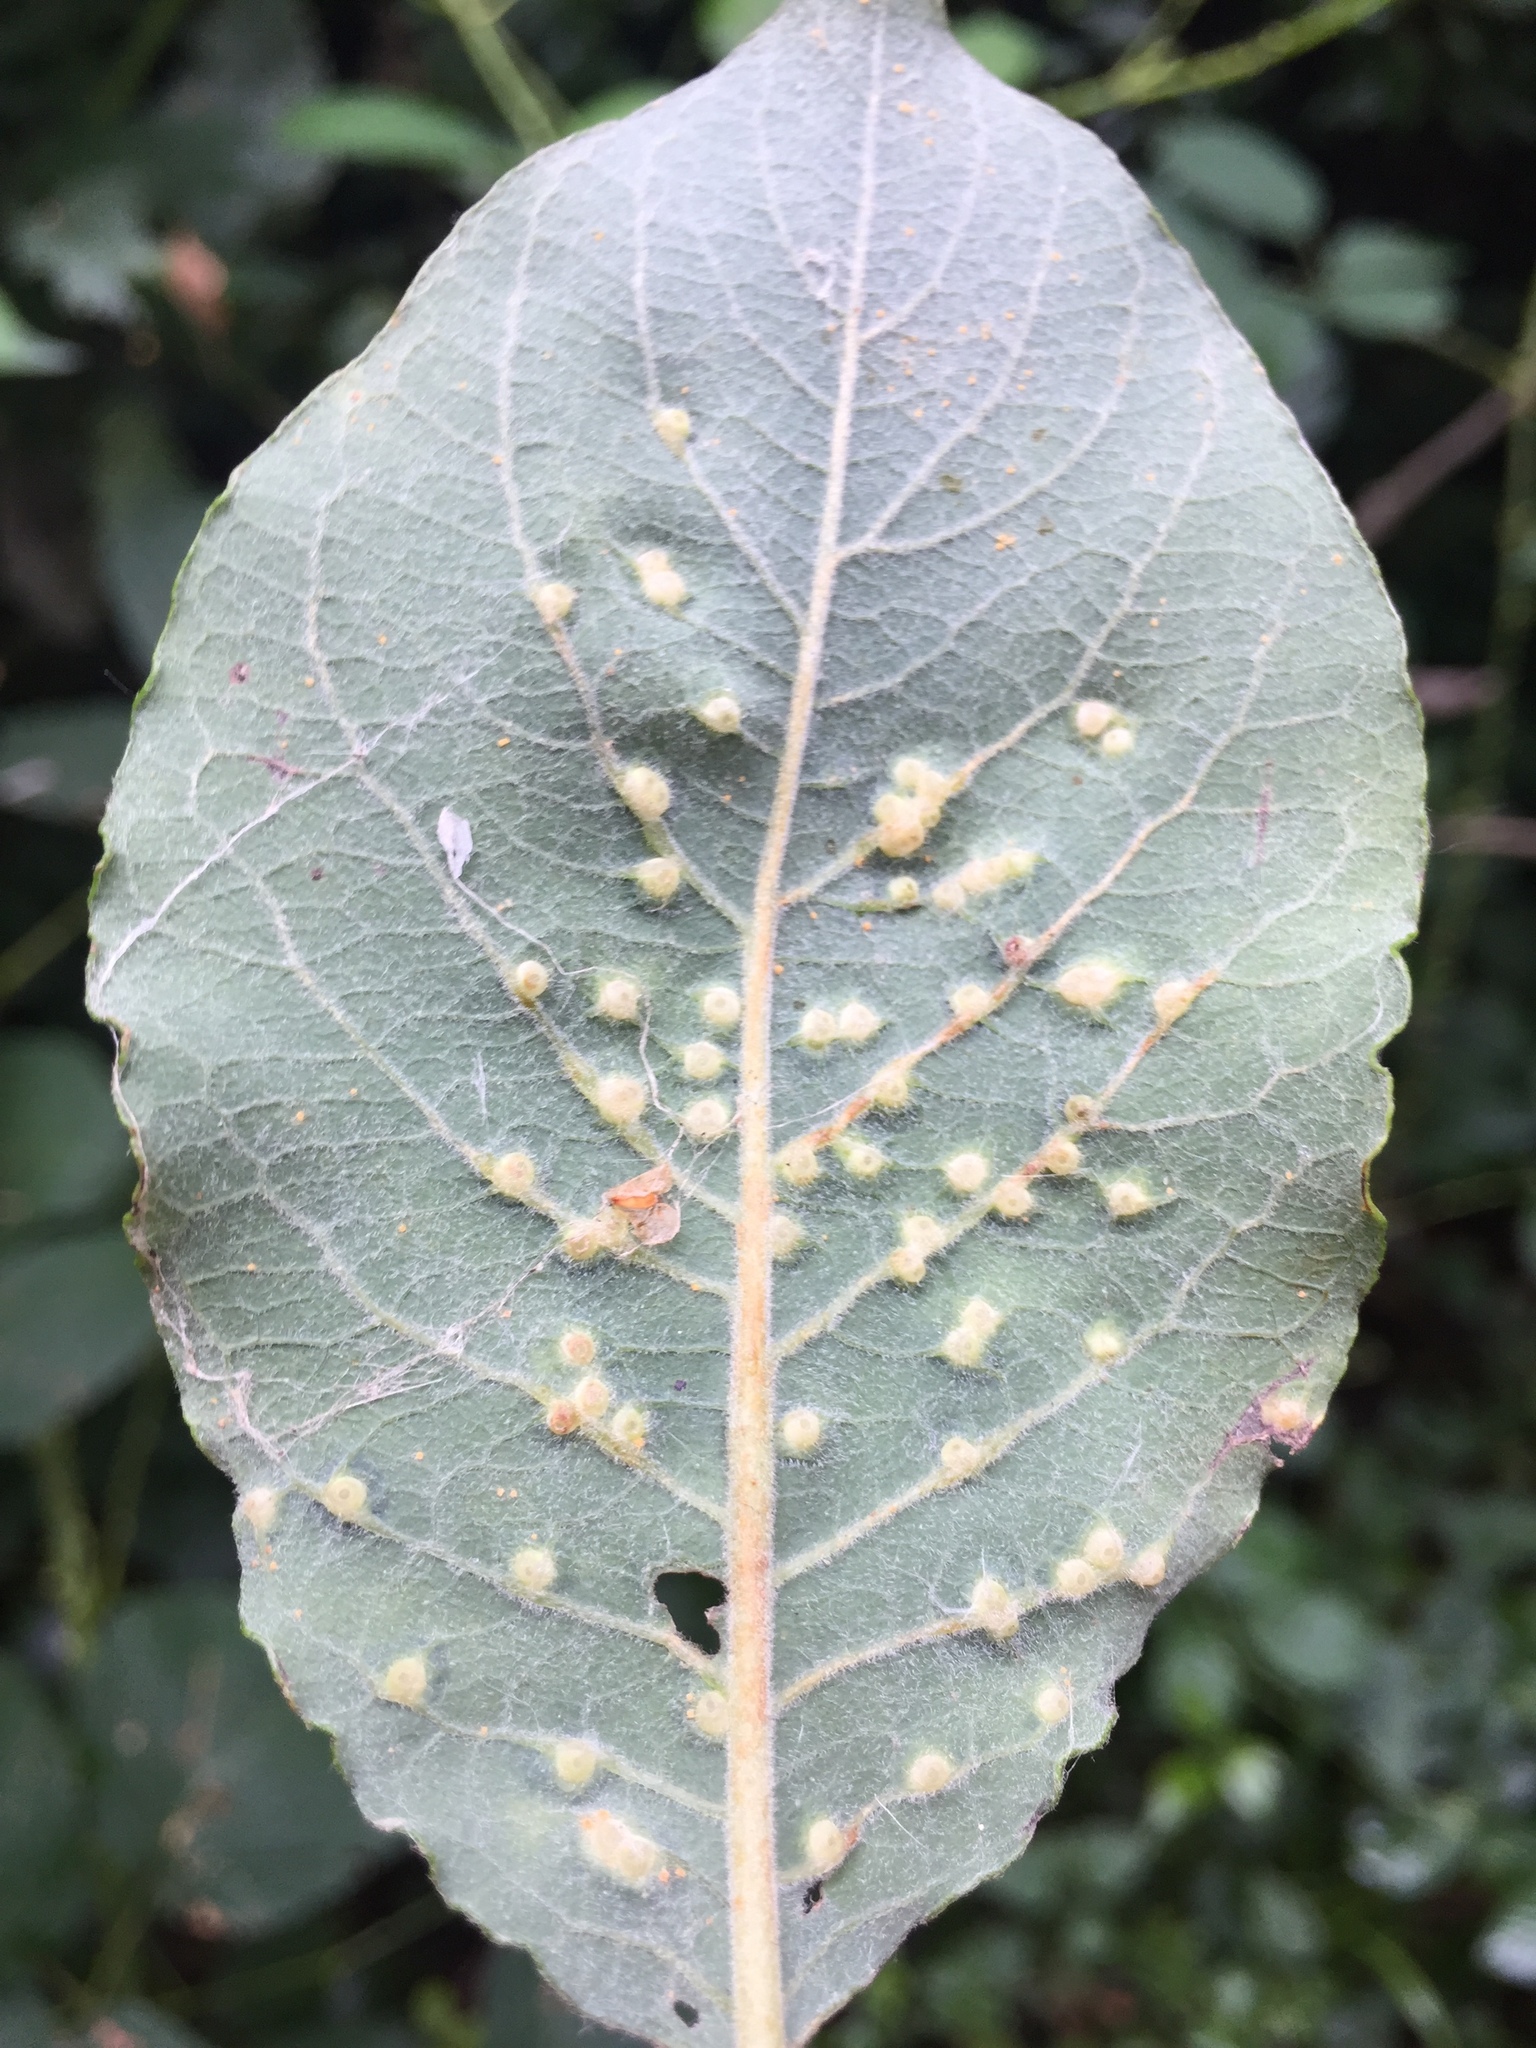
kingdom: Animalia
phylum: Arthropoda
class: Insecta
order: Diptera
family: Cecidomyiidae
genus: Iteomyia
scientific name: Iteomyia capreae
